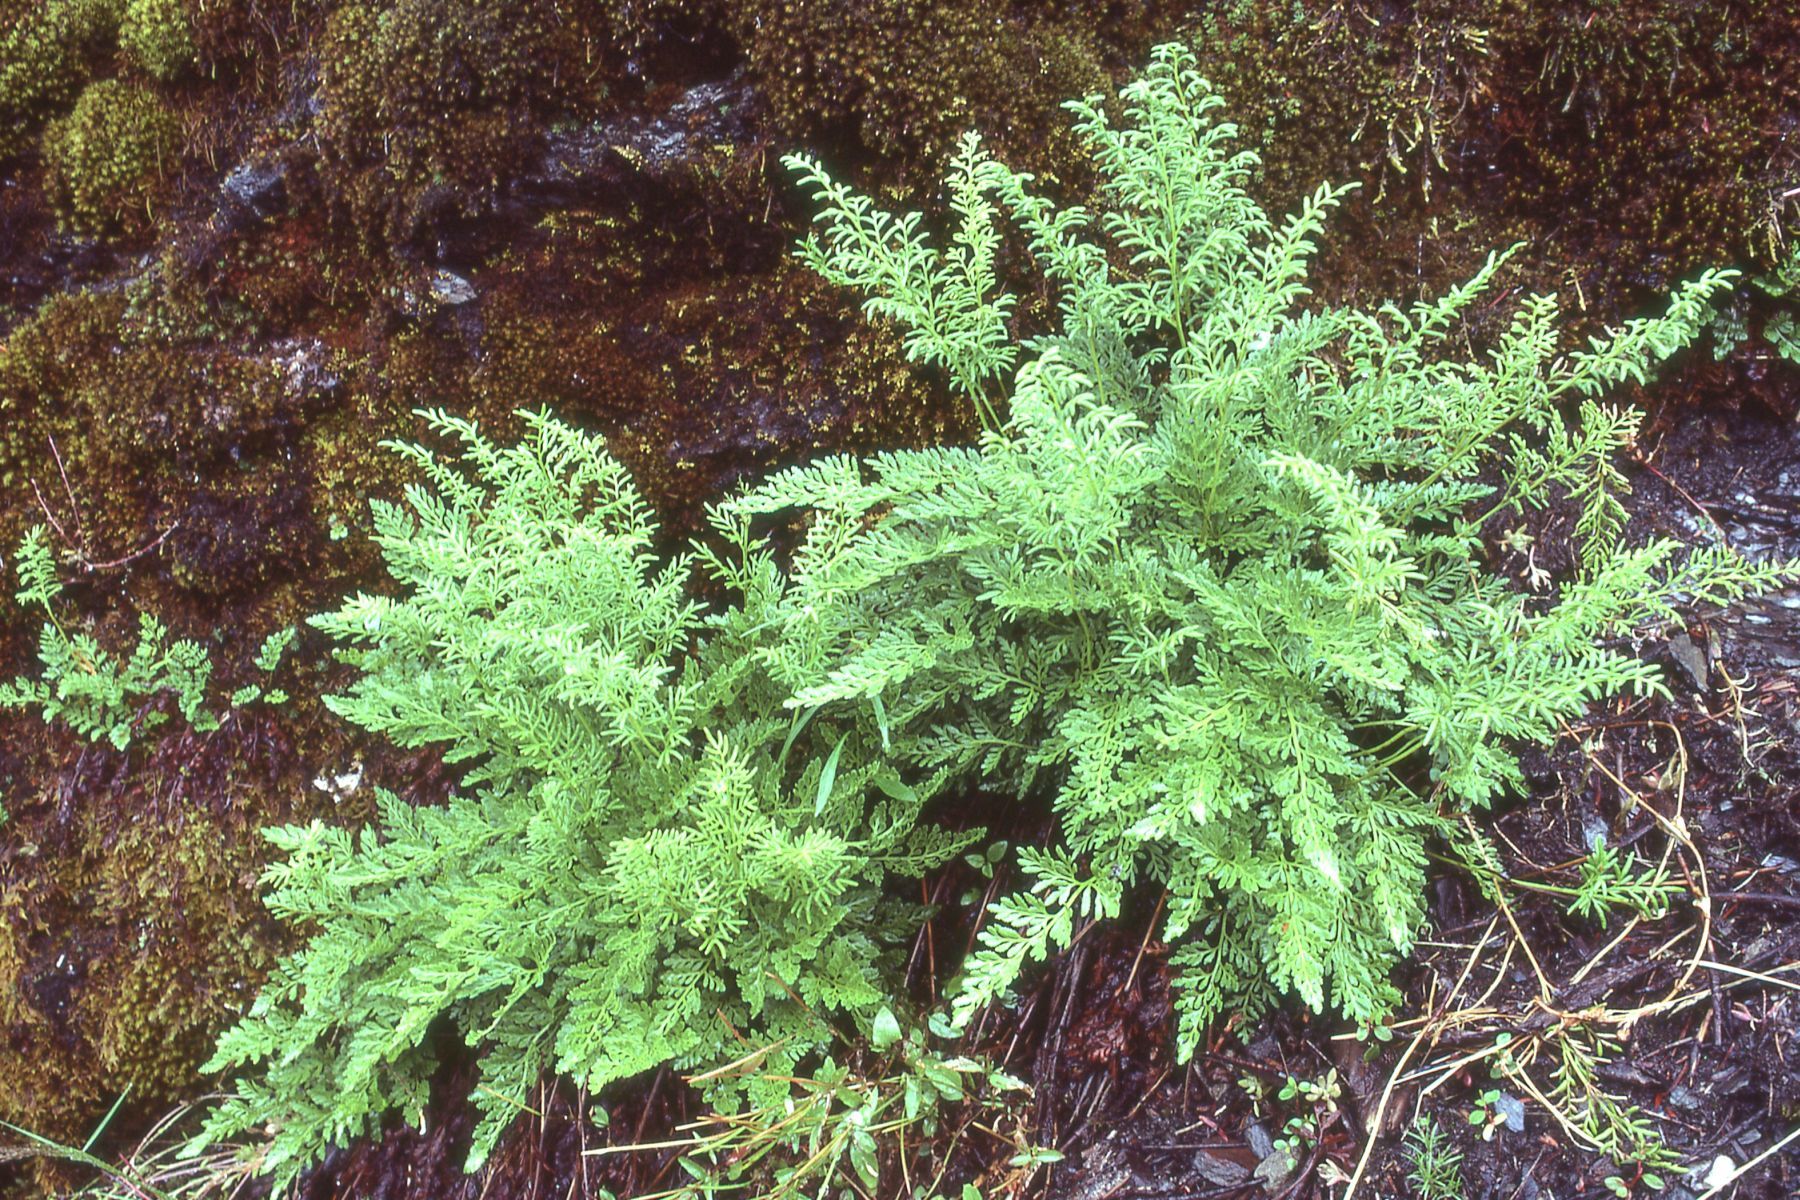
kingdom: Plantae
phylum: Tracheophyta
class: Polypodiopsida
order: Polypodiales
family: Pteridaceae
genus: Cryptogramma
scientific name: Cryptogramma acrostichoides
